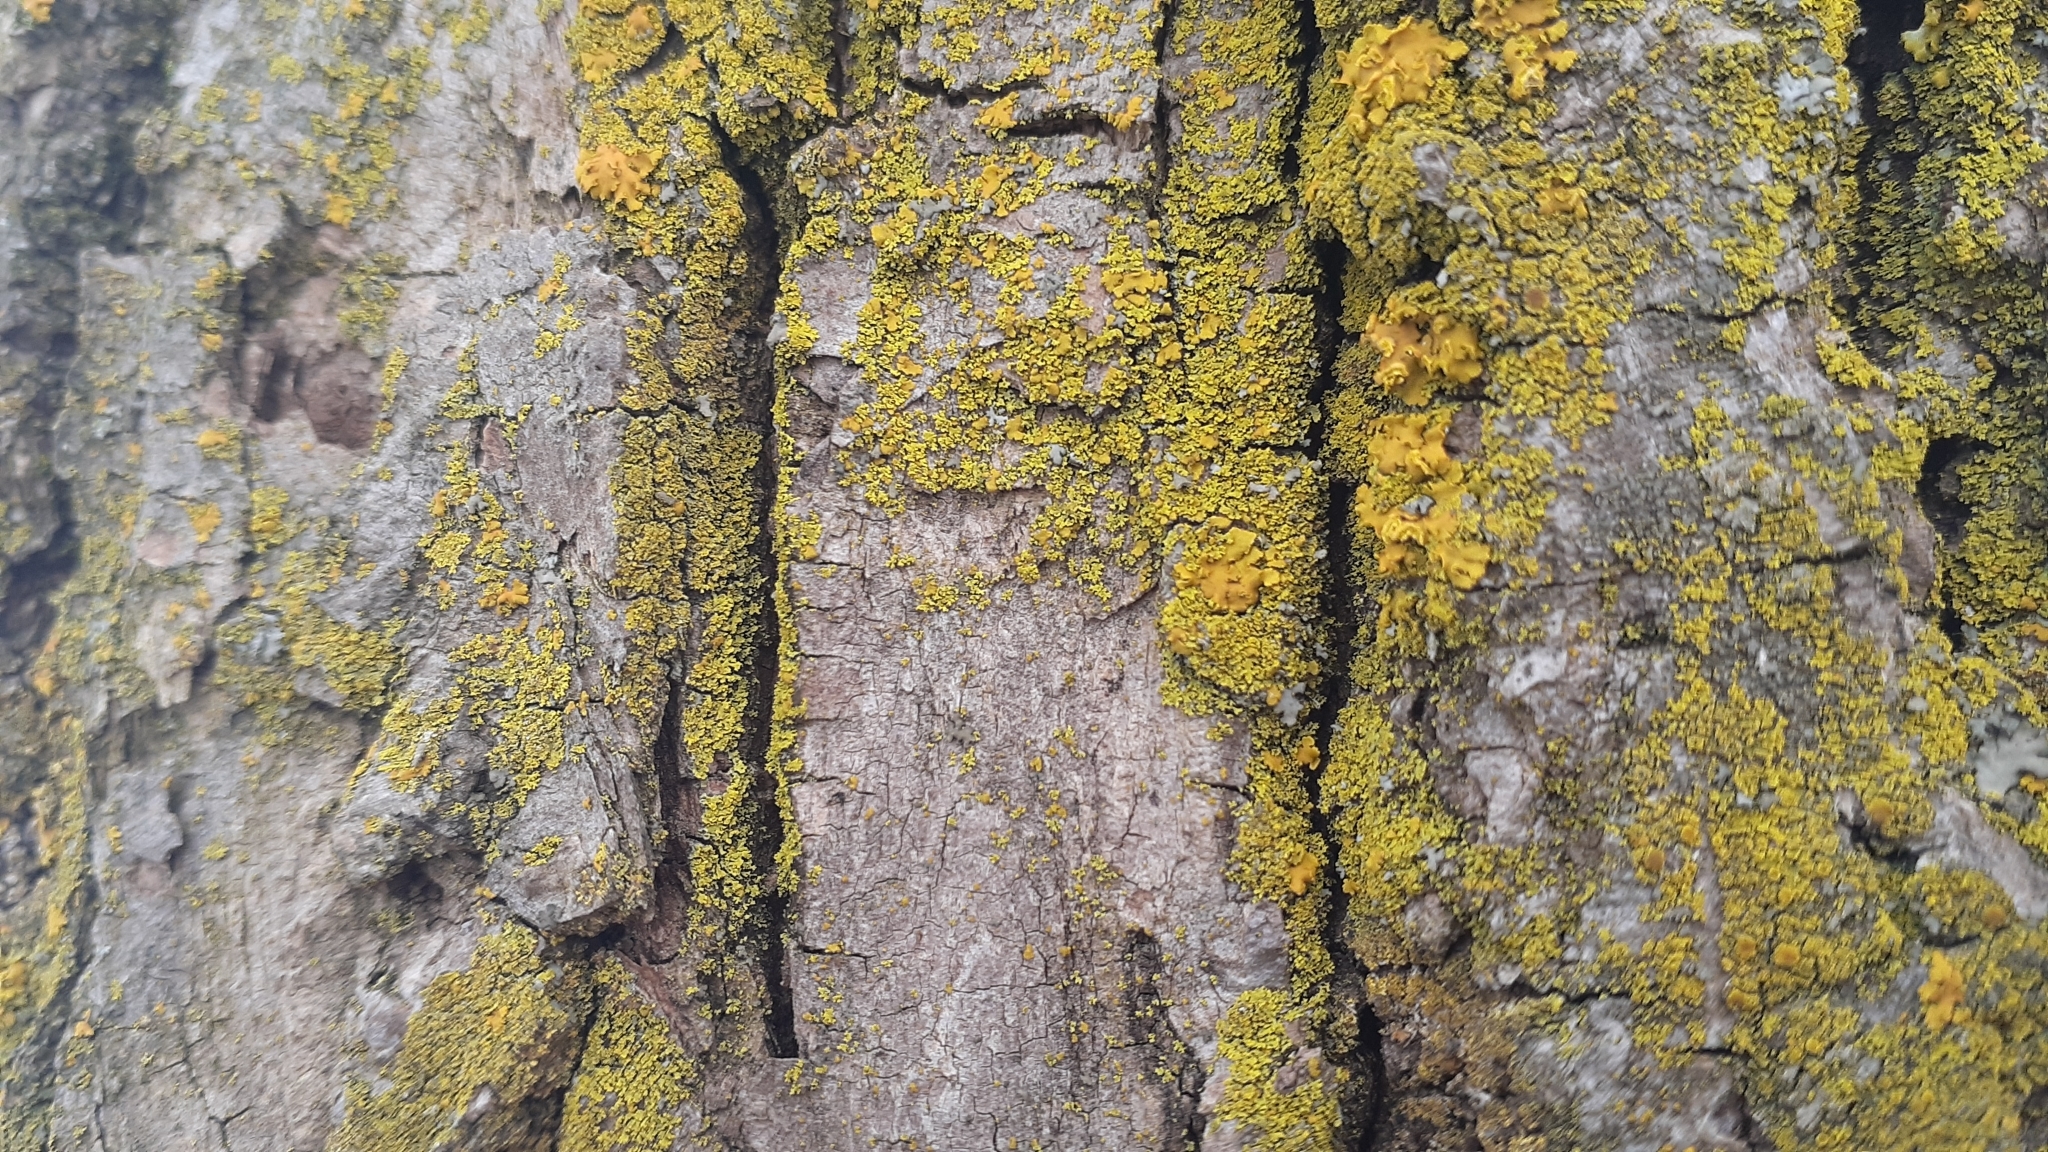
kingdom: Fungi
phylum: Ascomycota
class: Candelariomycetes
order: Candelariales
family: Candelariaceae
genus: Candelaria
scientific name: Candelaria concolor
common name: Candleflame lichen
